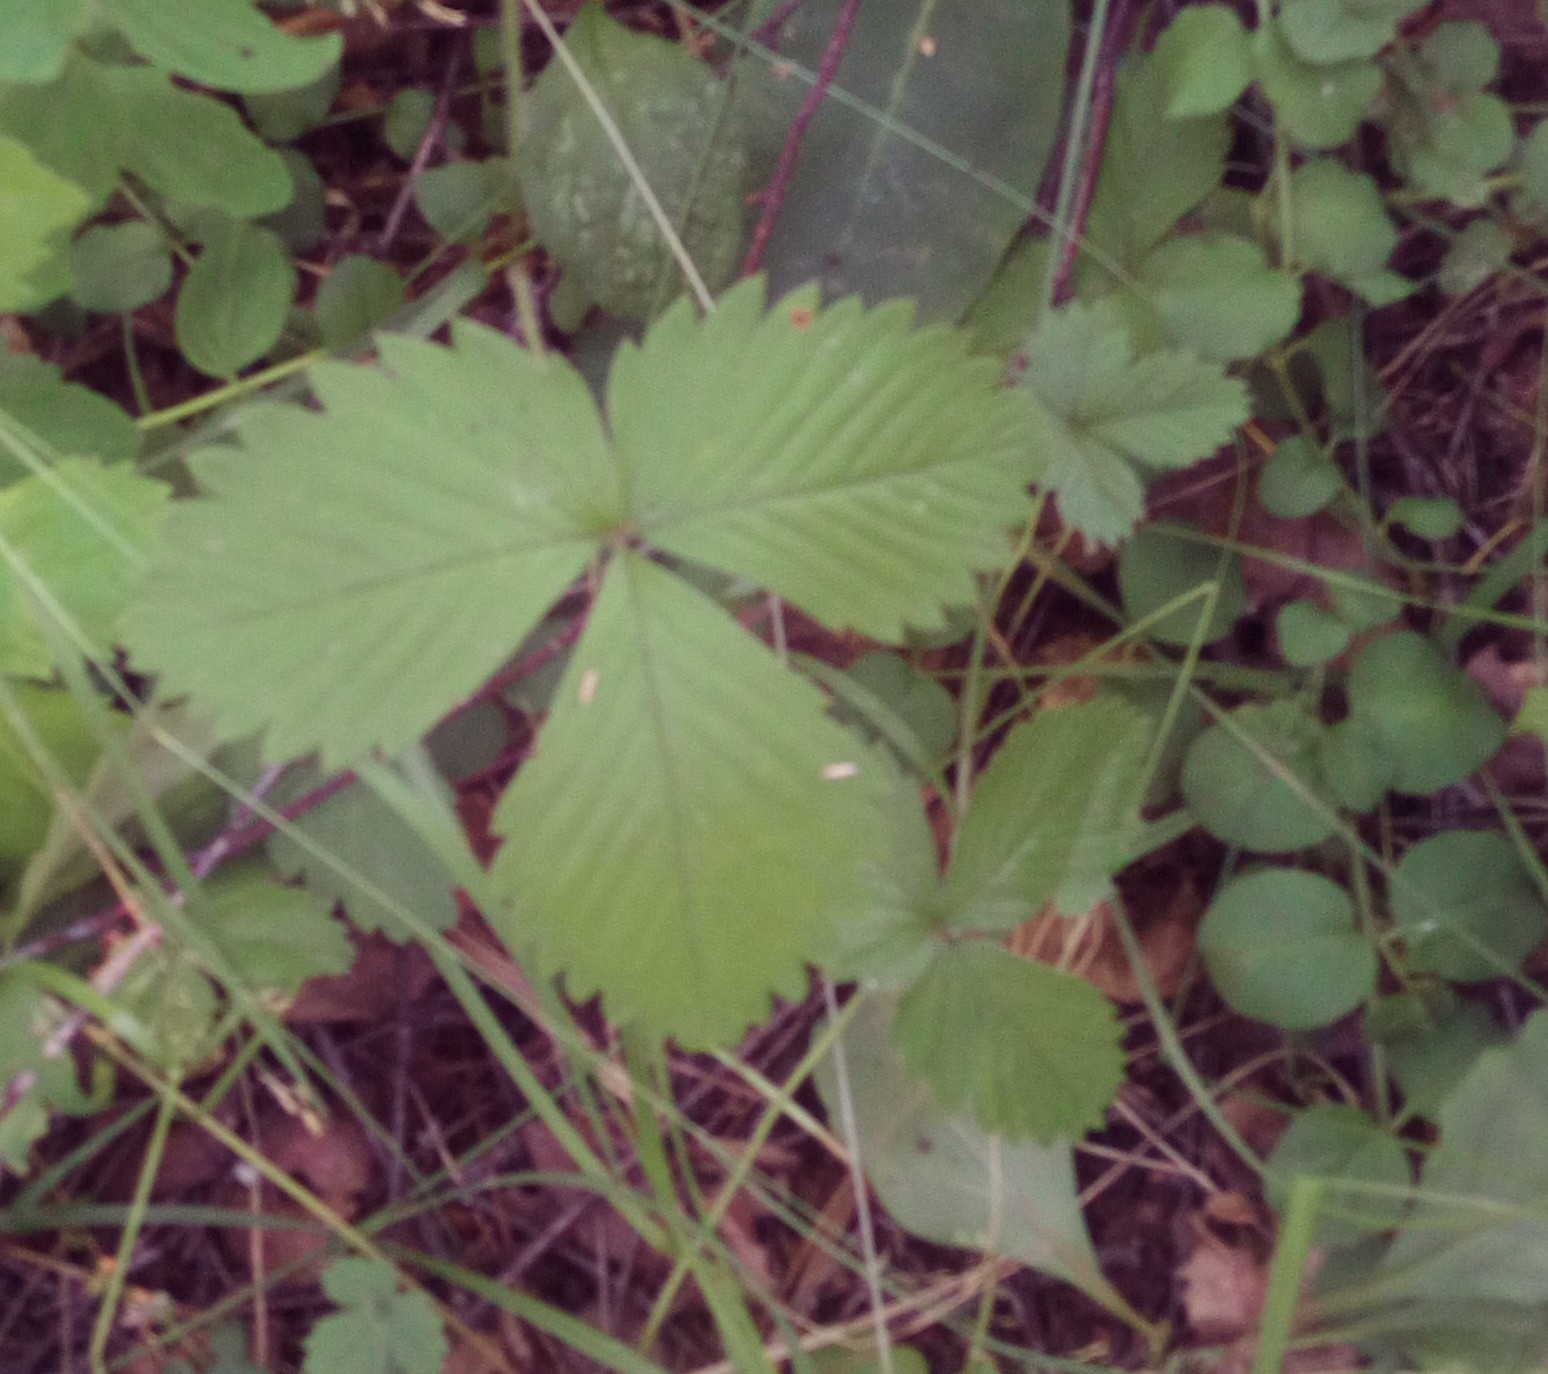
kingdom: Plantae
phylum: Tracheophyta
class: Magnoliopsida
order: Rosales
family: Rosaceae
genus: Fragaria
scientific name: Fragaria vesca
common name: Wild strawberry
